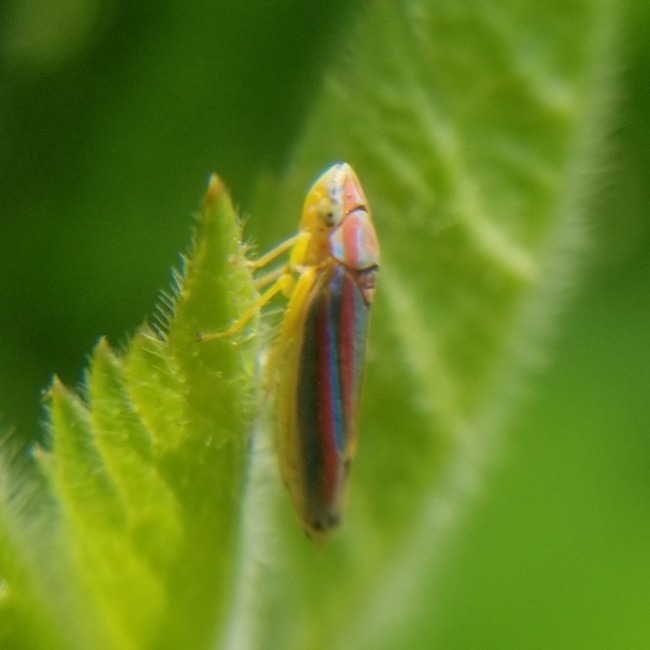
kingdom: Animalia
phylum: Arthropoda
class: Insecta
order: Hemiptera
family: Cicadellidae
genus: Graphocephala
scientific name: Graphocephala versuta
